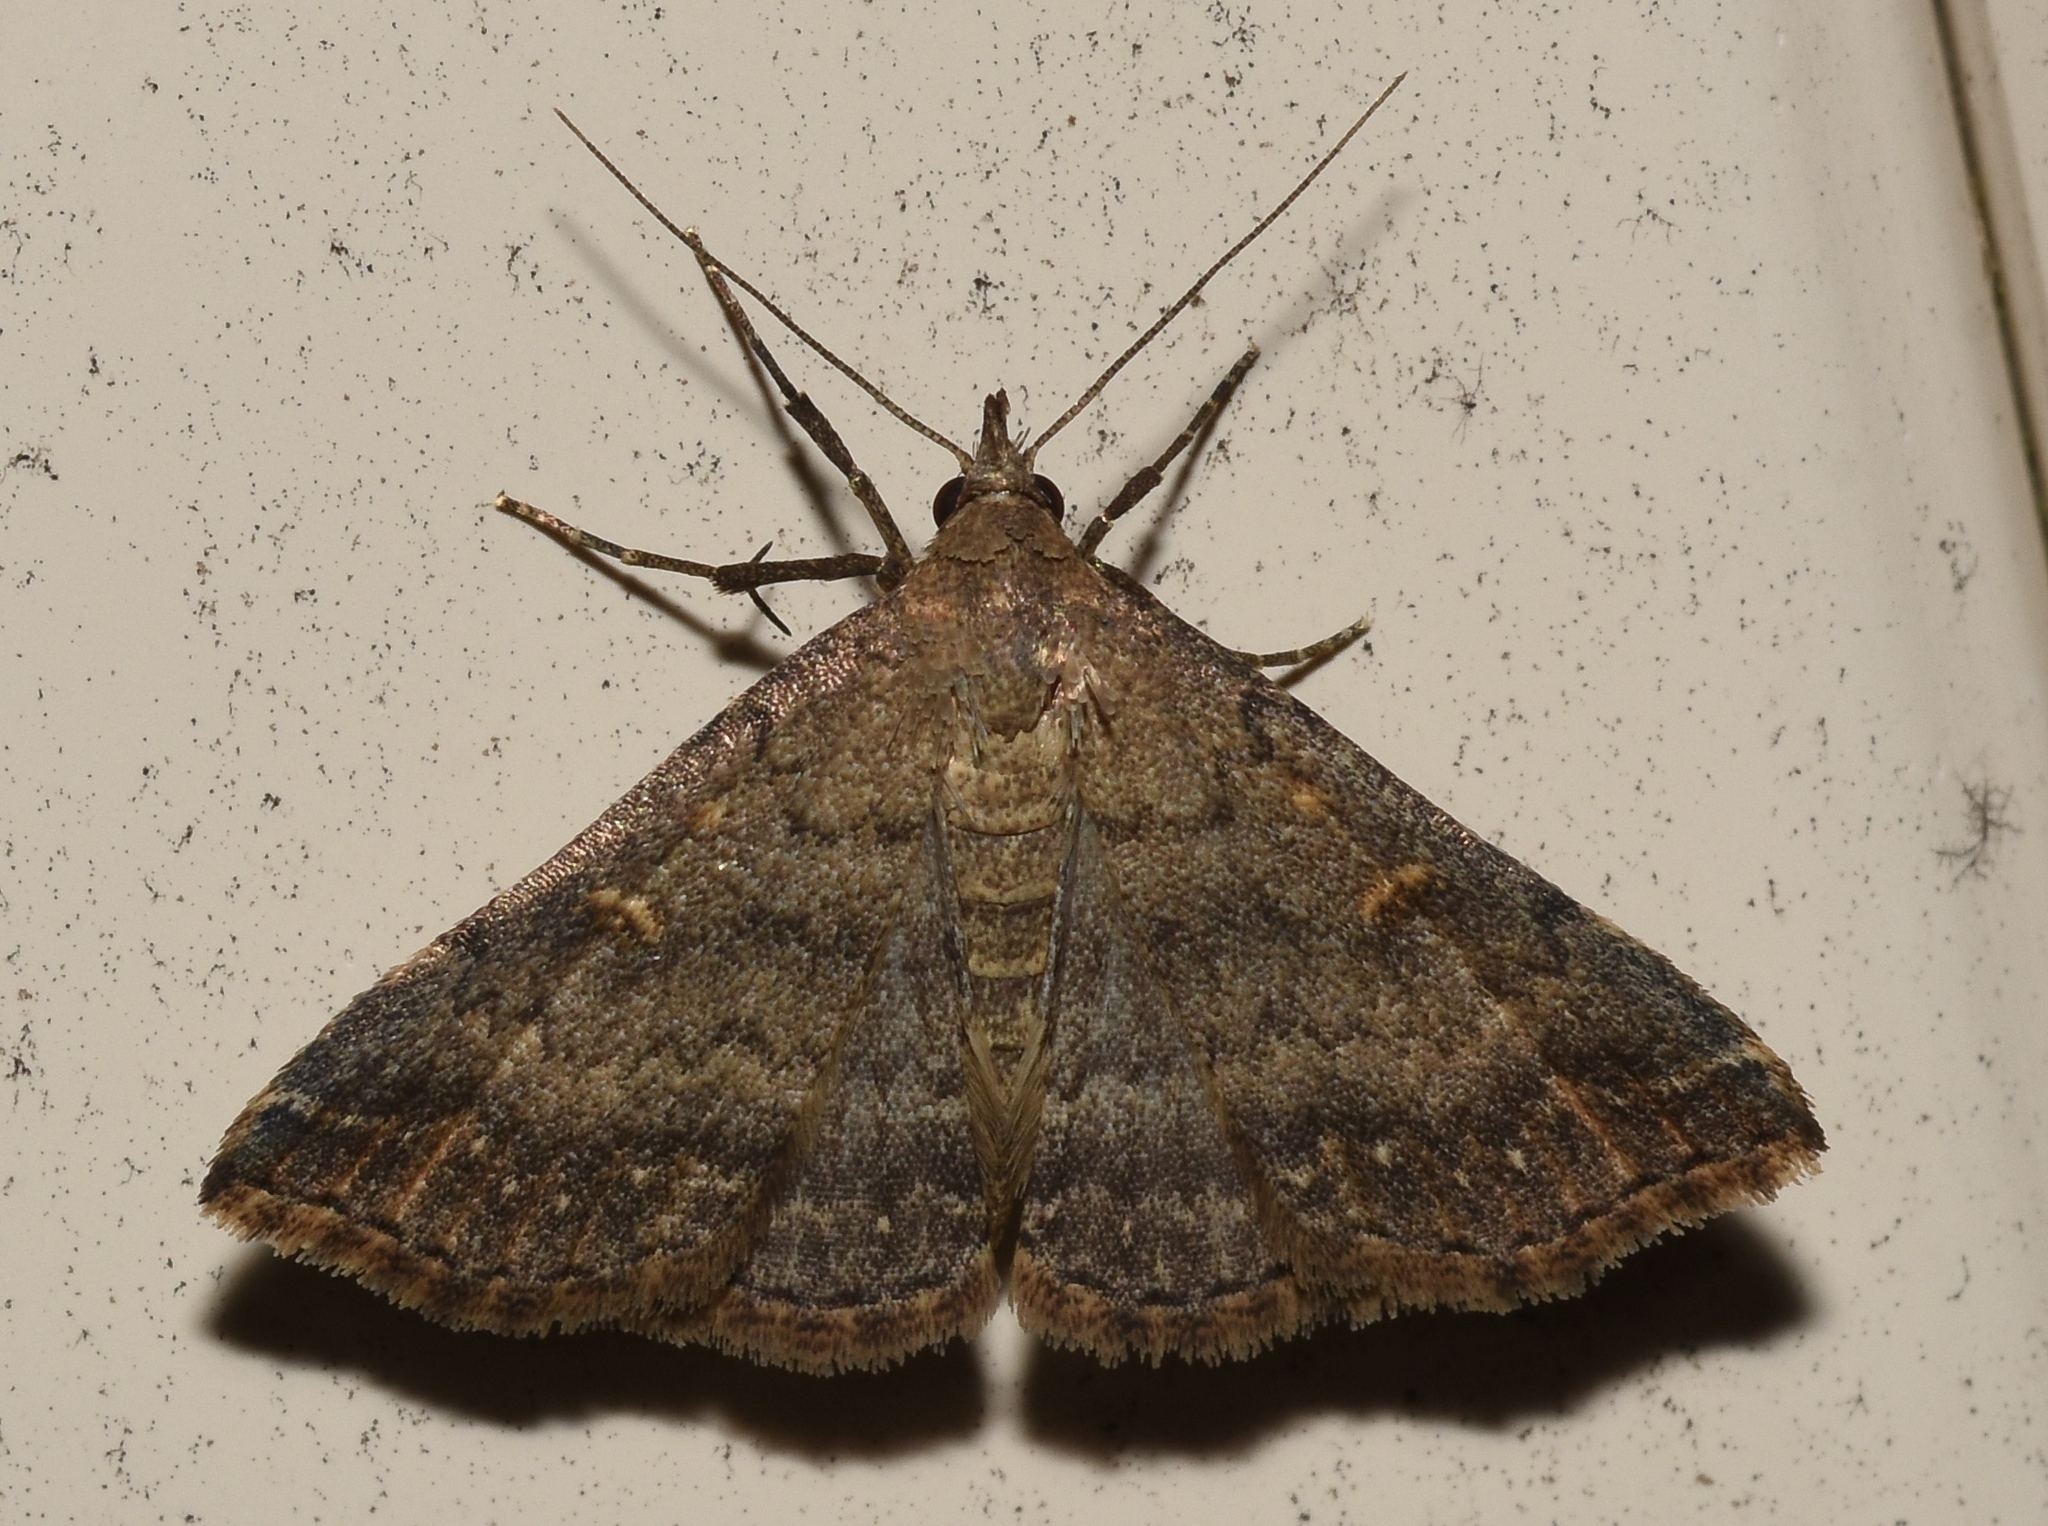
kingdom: Animalia
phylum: Arthropoda
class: Insecta
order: Lepidoptera
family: Erebidae
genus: Tetanolita
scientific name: Tetanolita floridana
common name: Florida tetanolita moth
